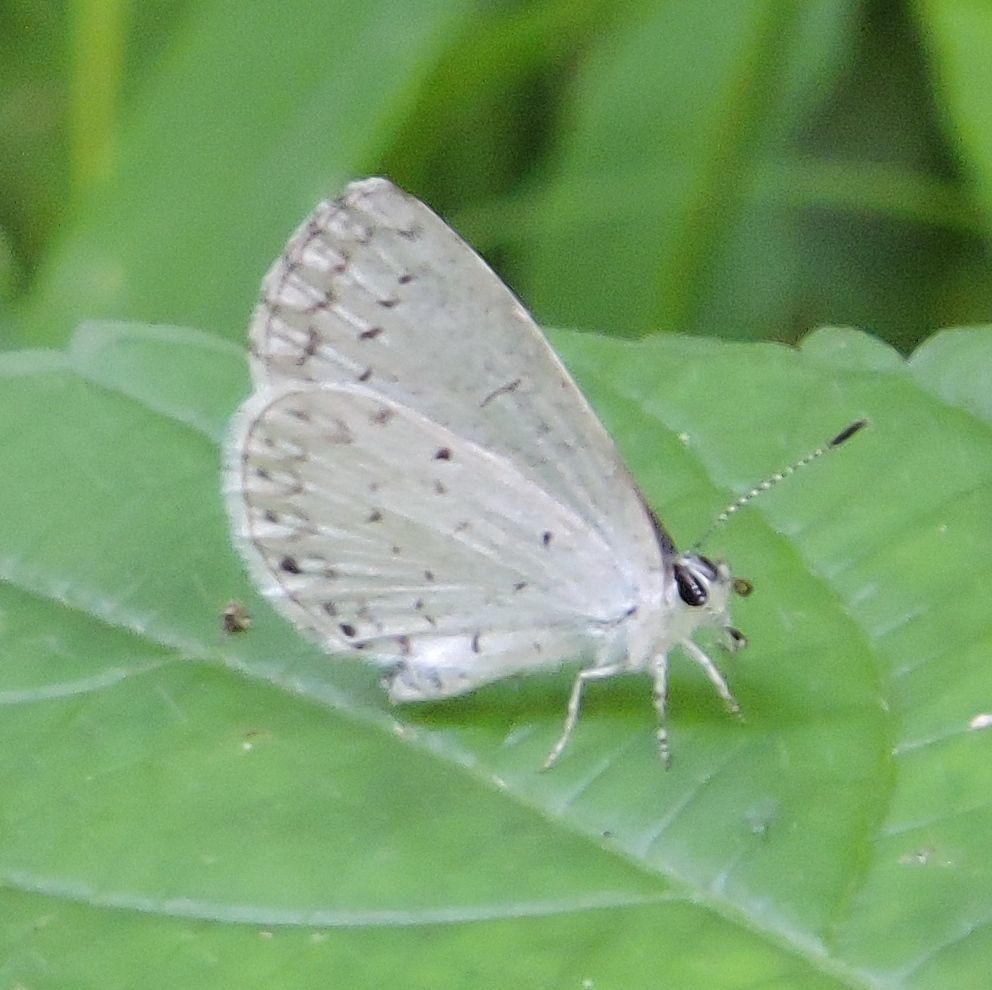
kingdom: Animalia
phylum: Arthropoda
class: Insecta
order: Lepidoptera
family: Lycaenidae
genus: Cyaniris
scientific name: Cyaniris neglecta
